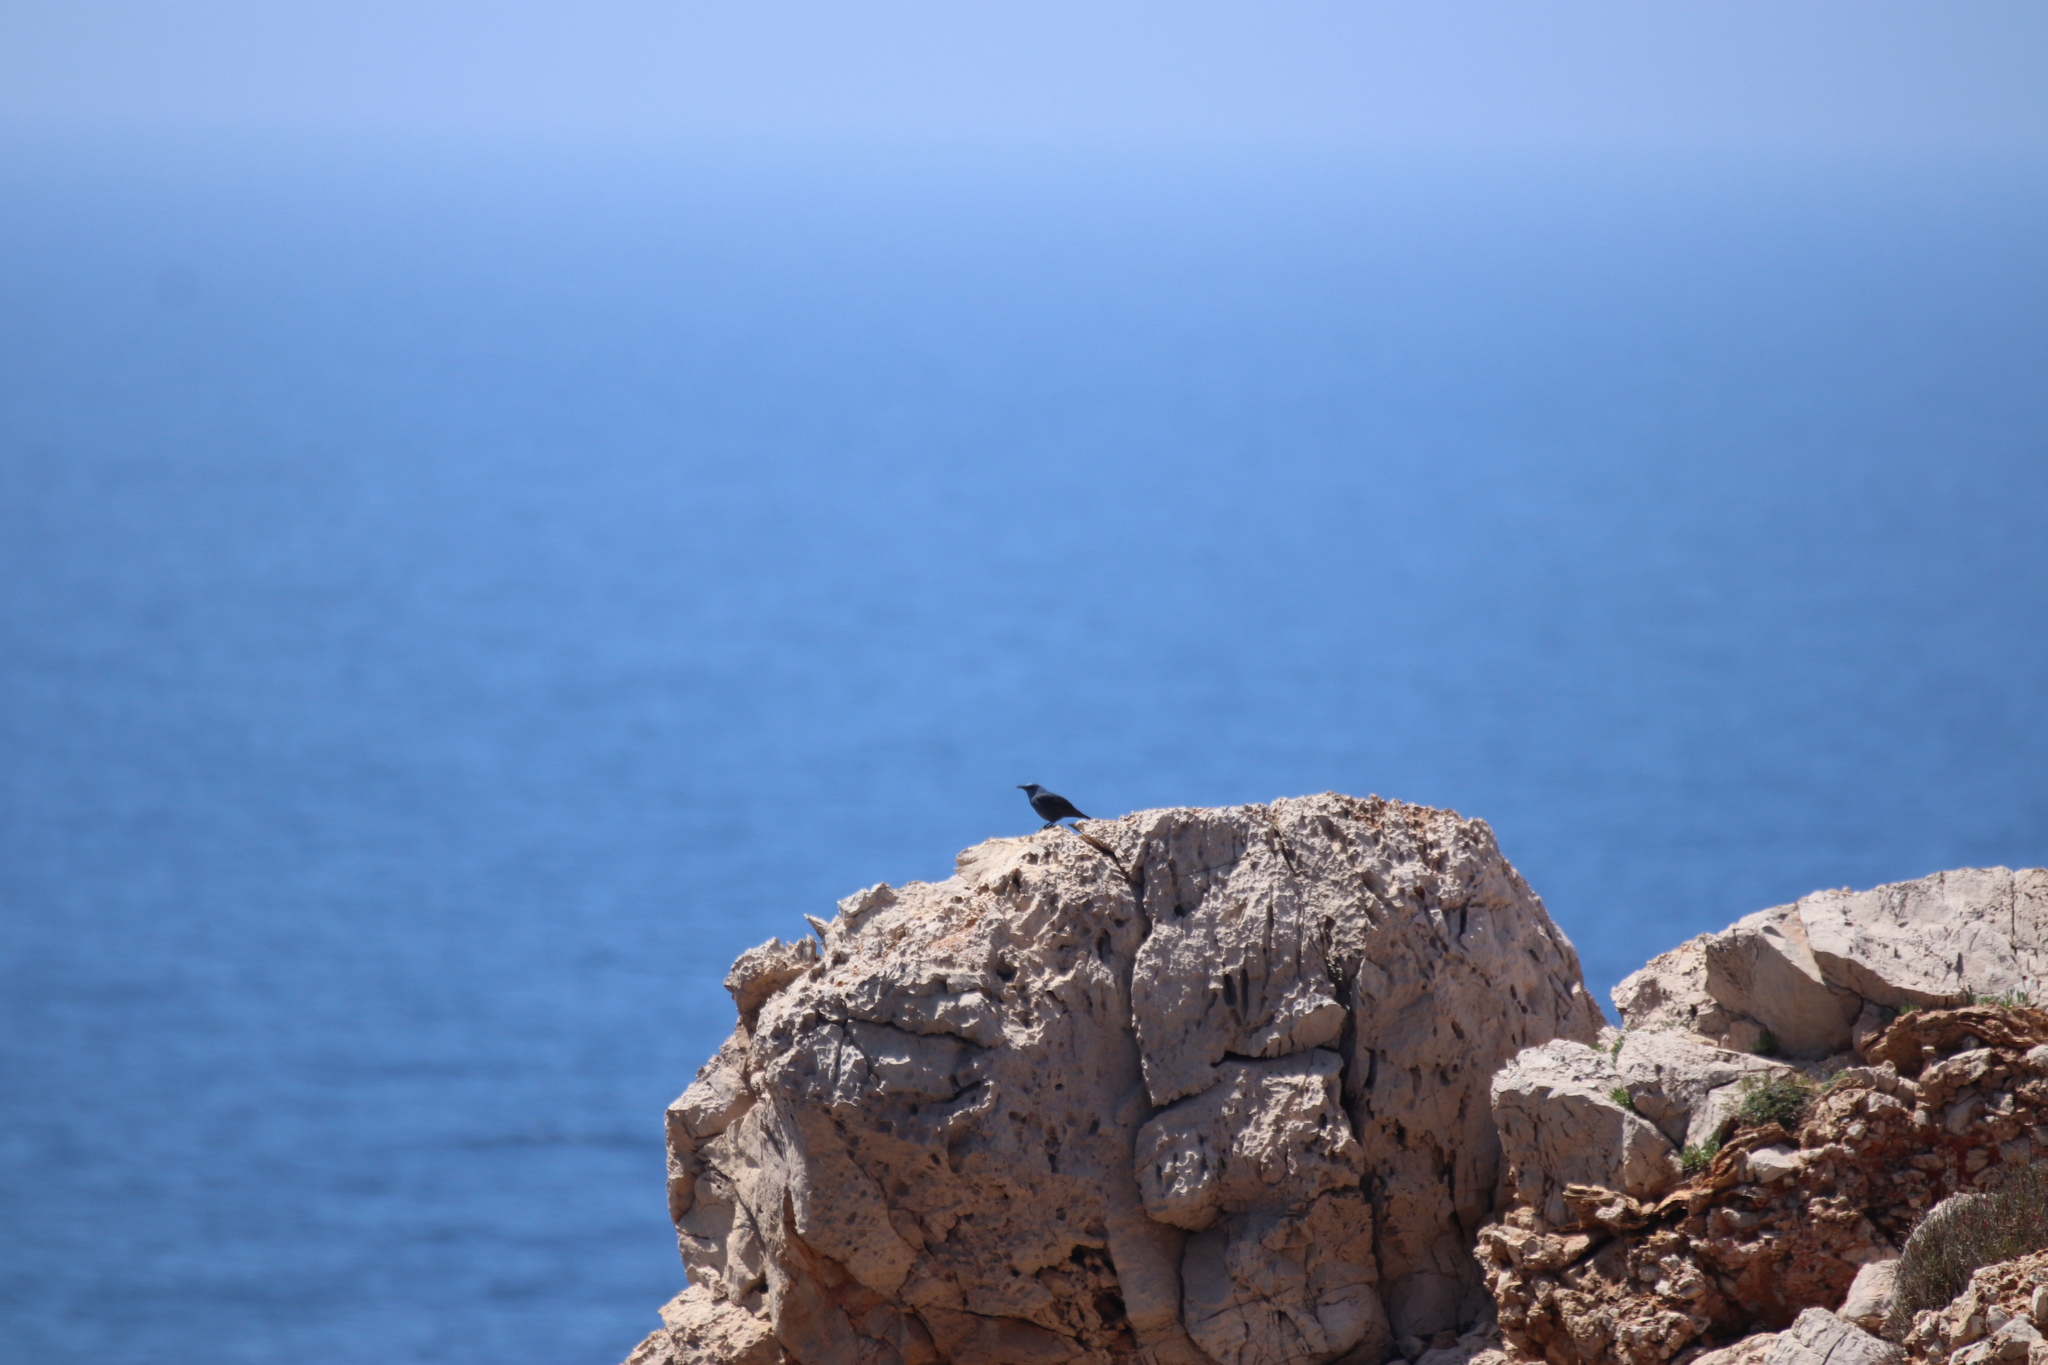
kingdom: Animalia
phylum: Chordata
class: Aves
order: Passeriformes
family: Muscicapidae
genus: Monticola
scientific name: Monticola solitarius
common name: Blue rock thrush
